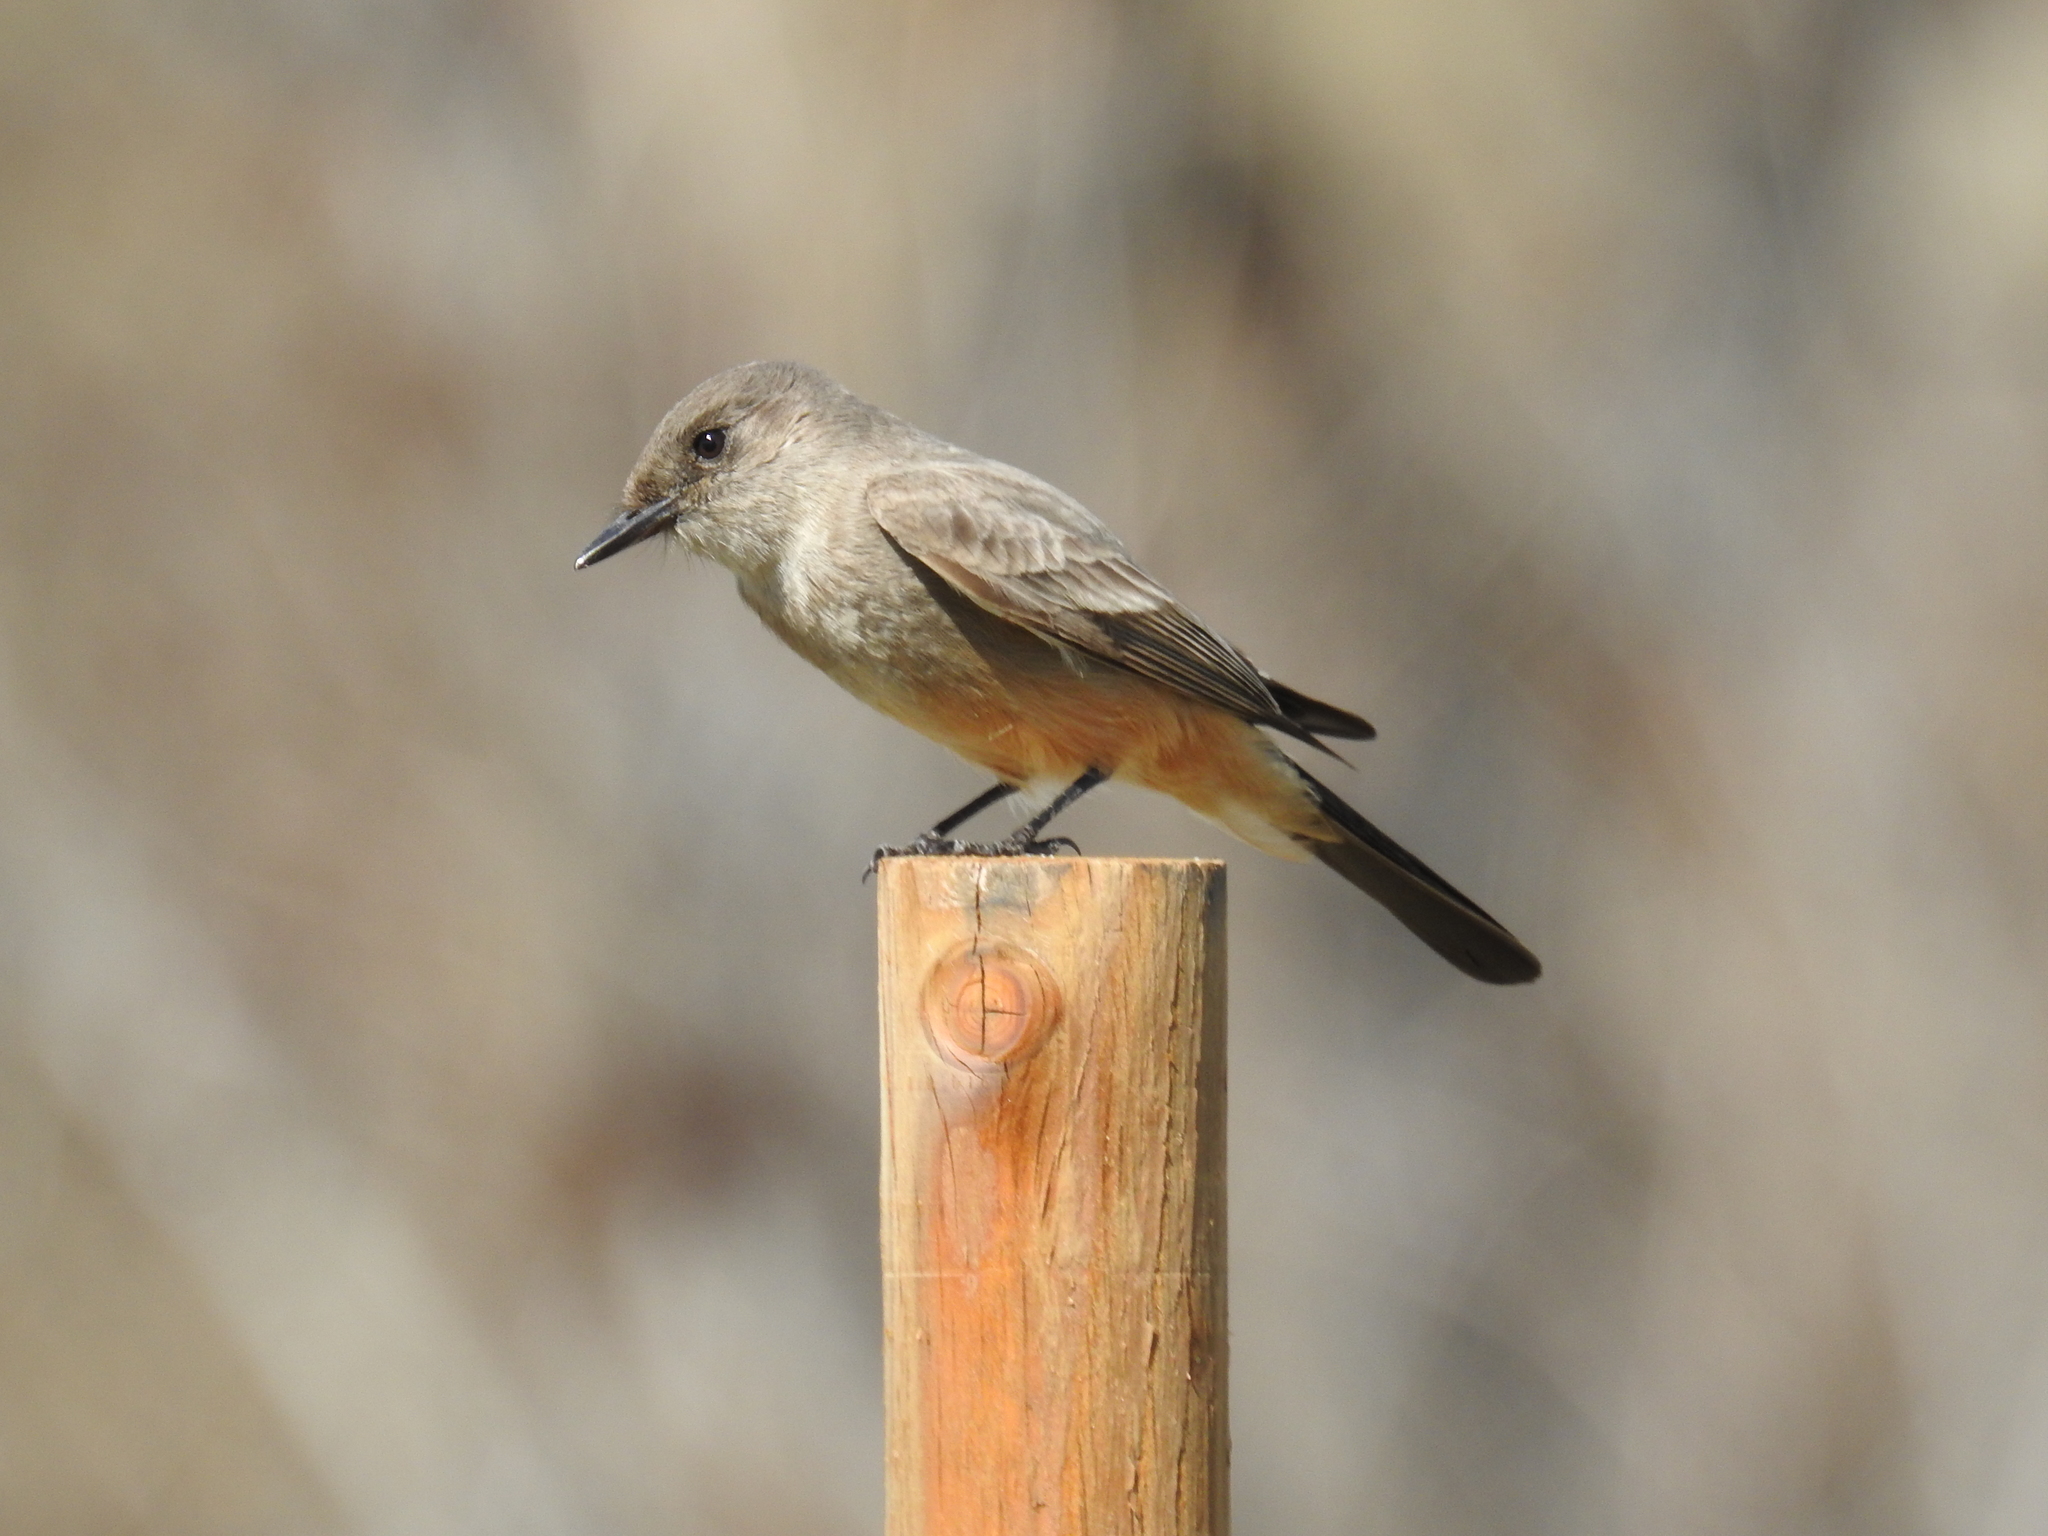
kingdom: Animalia
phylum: Chordata
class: Aves
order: Passeriformes
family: Tyrannidae
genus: Sayornis
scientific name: Sayornis saya
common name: Say's phoebe
